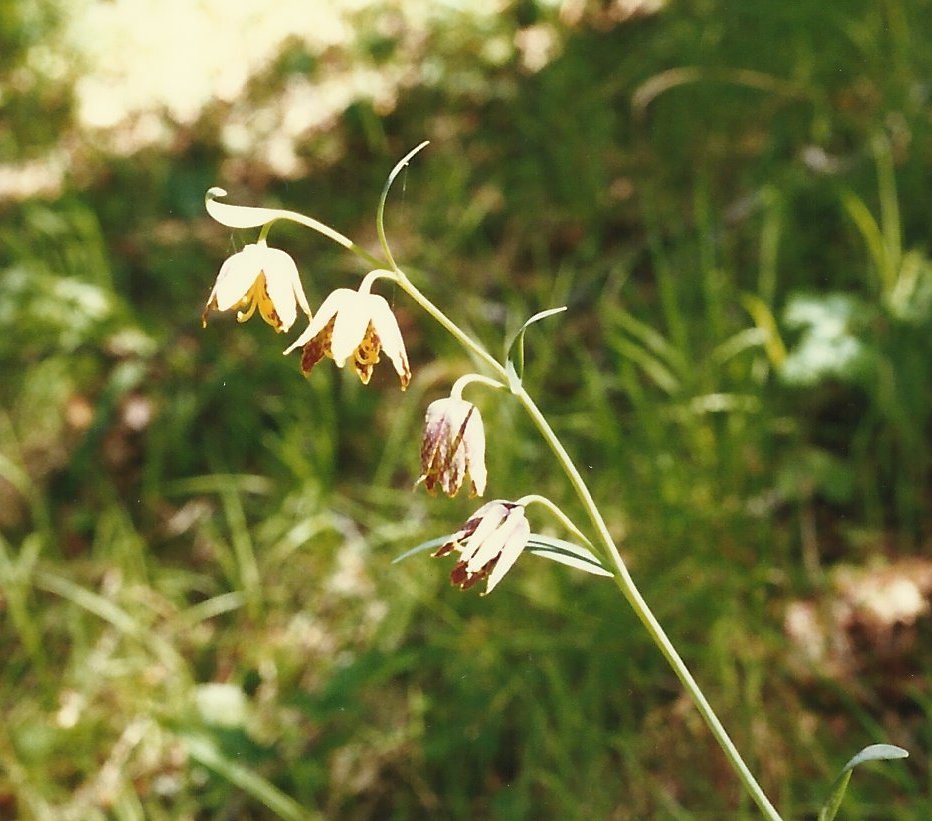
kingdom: Plantae
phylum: Tracheophyta
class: Liliopsida
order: Liliales
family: Liliaceae
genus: Fritillaria
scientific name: Fritillaria affinis
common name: Ojai fritillary
